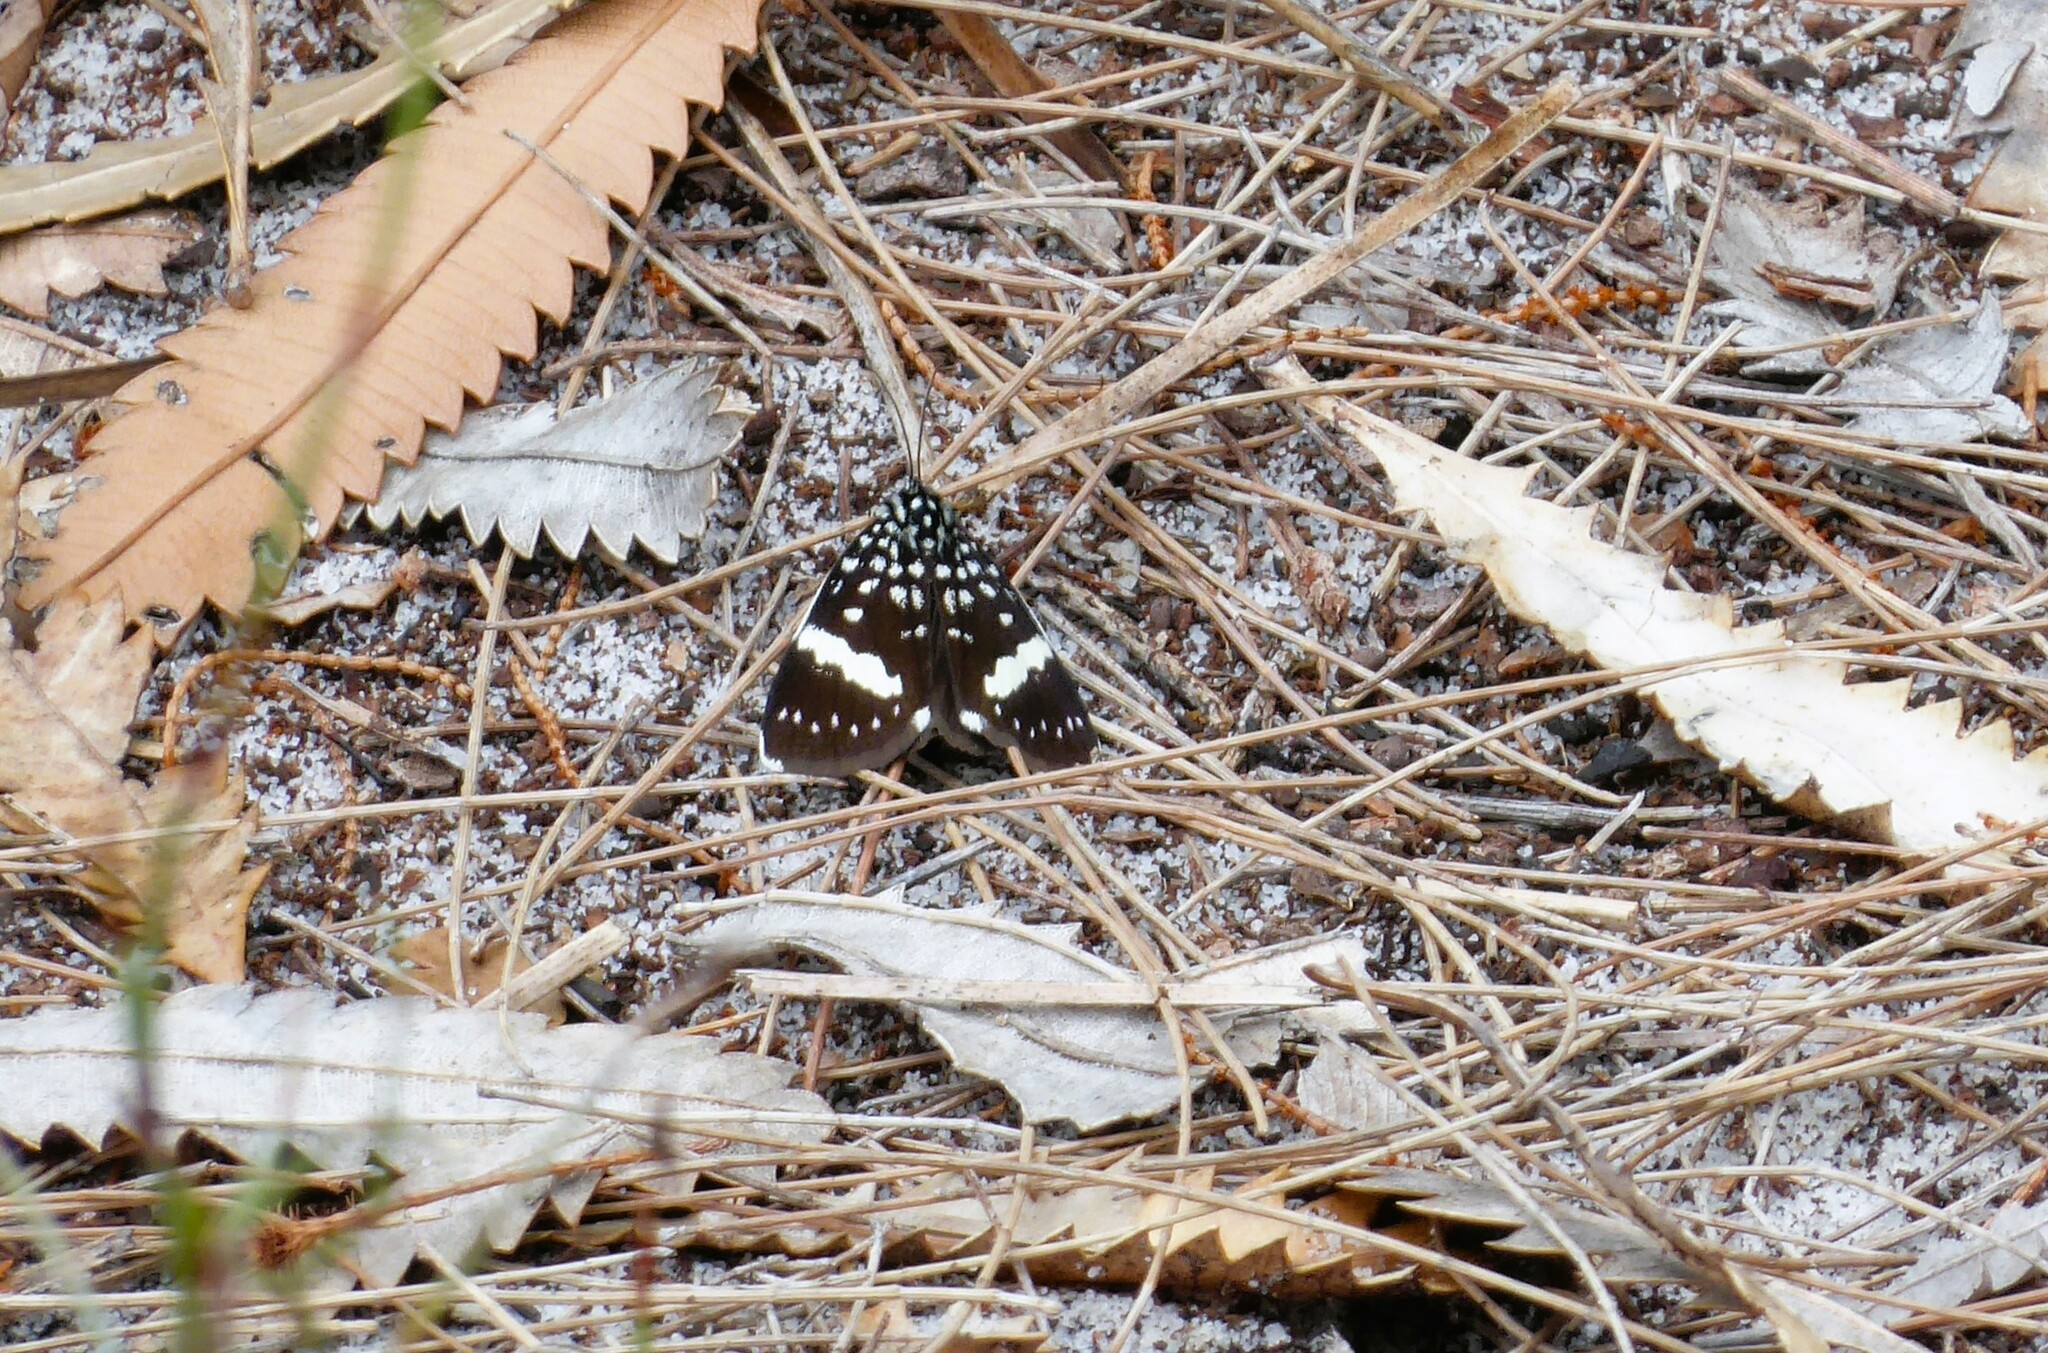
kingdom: Animalia
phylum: Arthropoda
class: Insecta
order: Lepidoptera
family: Noctuidae
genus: Idalima
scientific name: Idalima affinis
